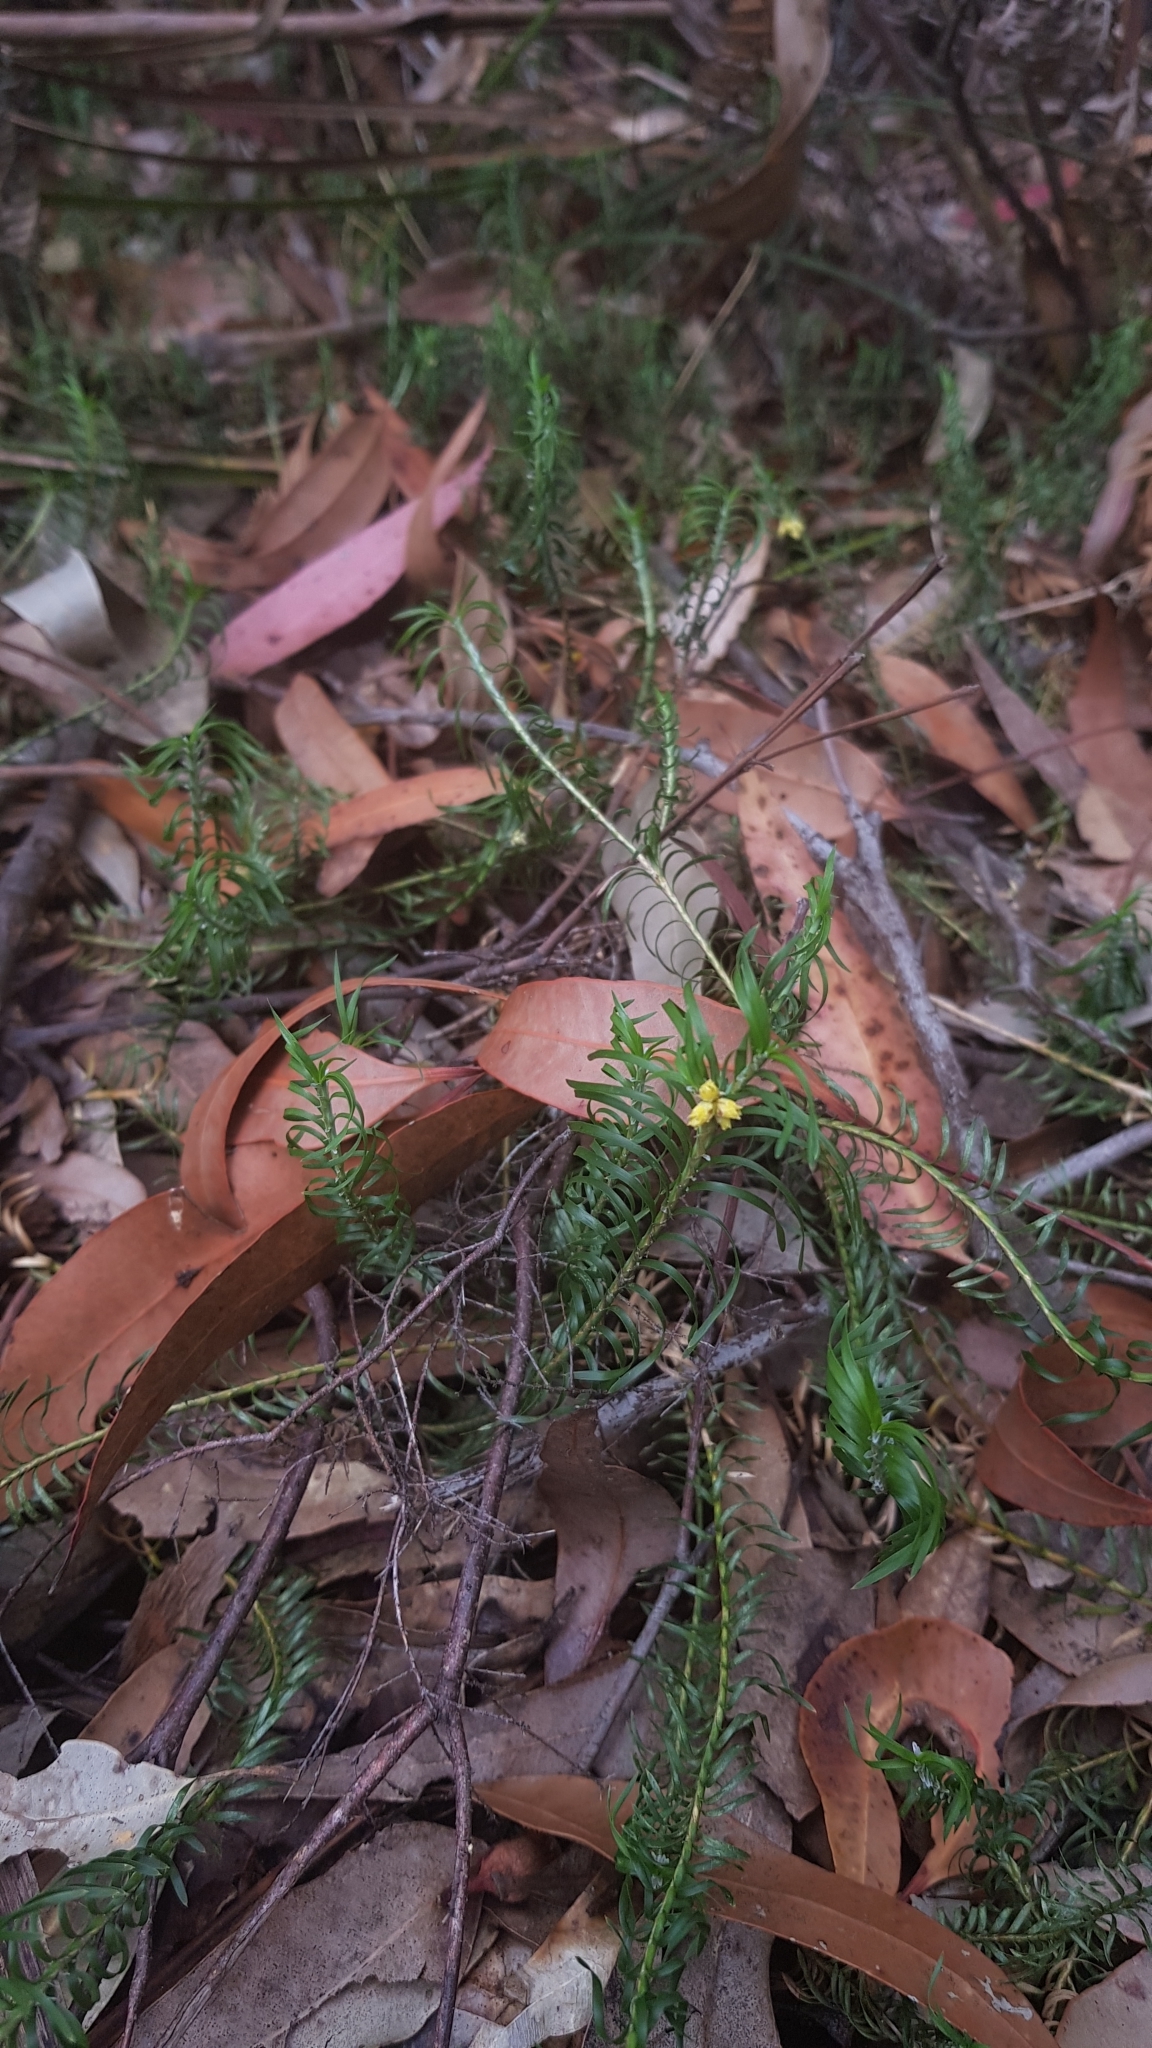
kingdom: Plantae
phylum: Tracheophyta
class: Liliopsida
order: Asparagales
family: Asparagaceae
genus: Lomandra
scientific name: Lomandra obliqua
